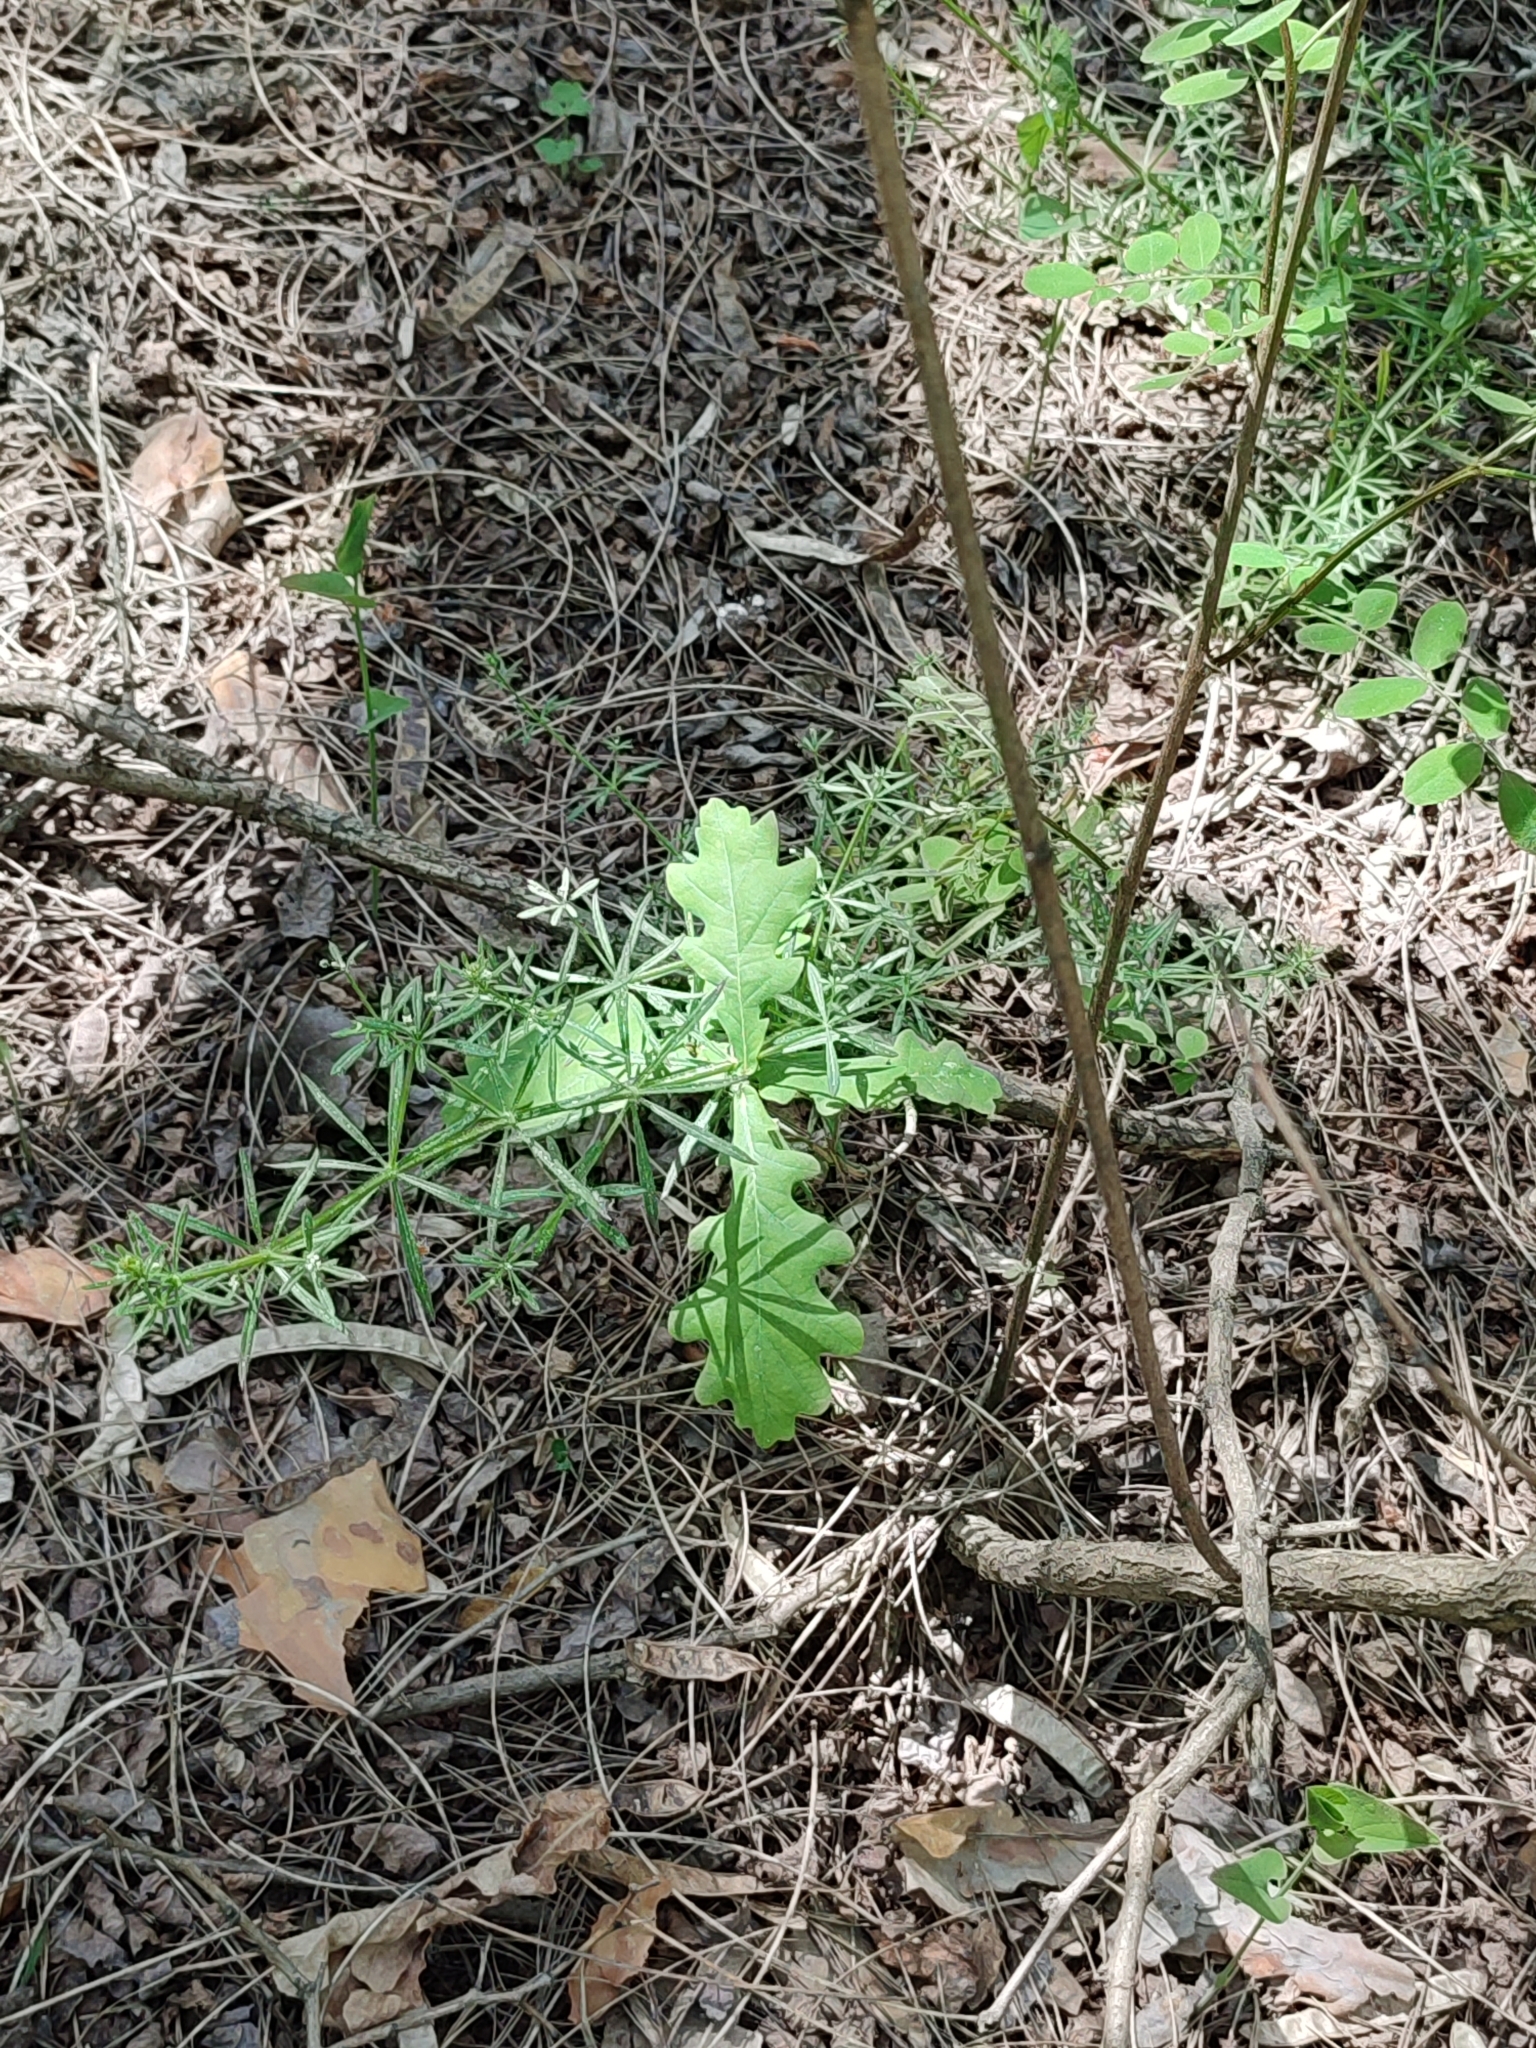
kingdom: Plantae
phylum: Tracheophyta
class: Magnoliopsida
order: Fagales
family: Fagaceae
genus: Quercus
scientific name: Quercus robur
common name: Pedunculate oak
